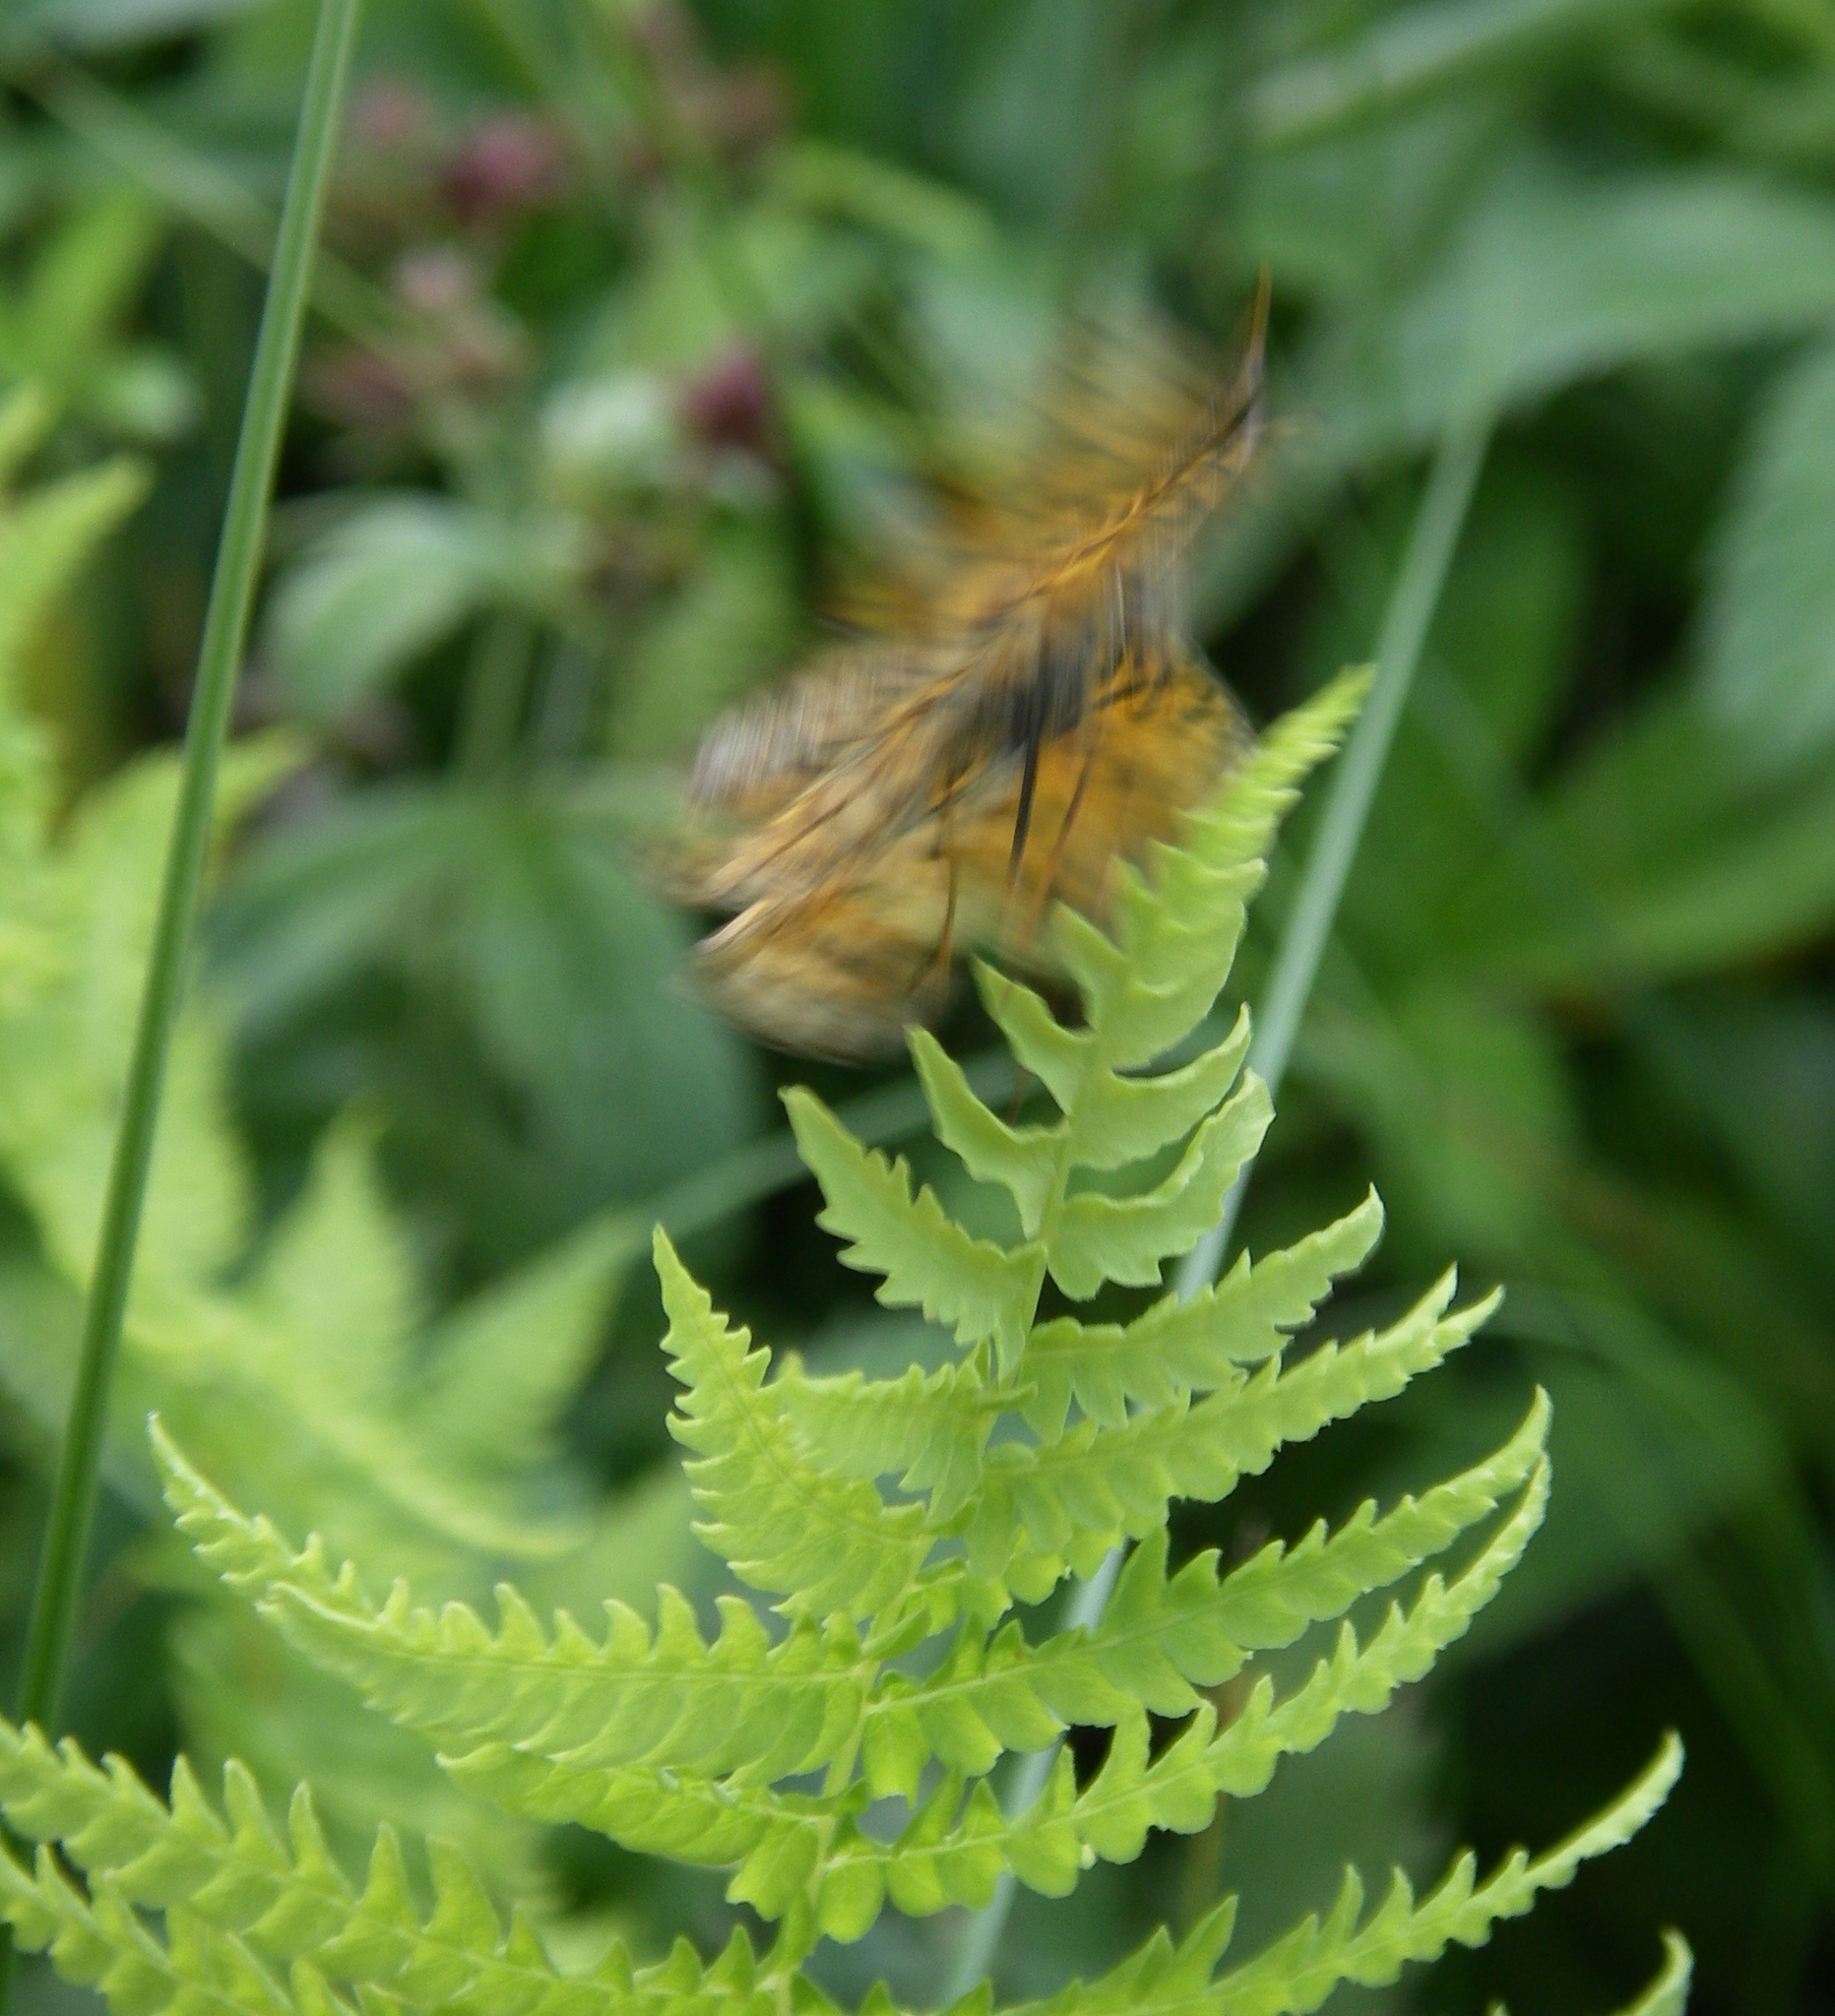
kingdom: Plantae
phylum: Tracheophyta
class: Polypodiopsida
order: Polypodiales
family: Thelypteridaceae
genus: Thelypteris
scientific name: Thelypteris palustris
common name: Marsh fern
